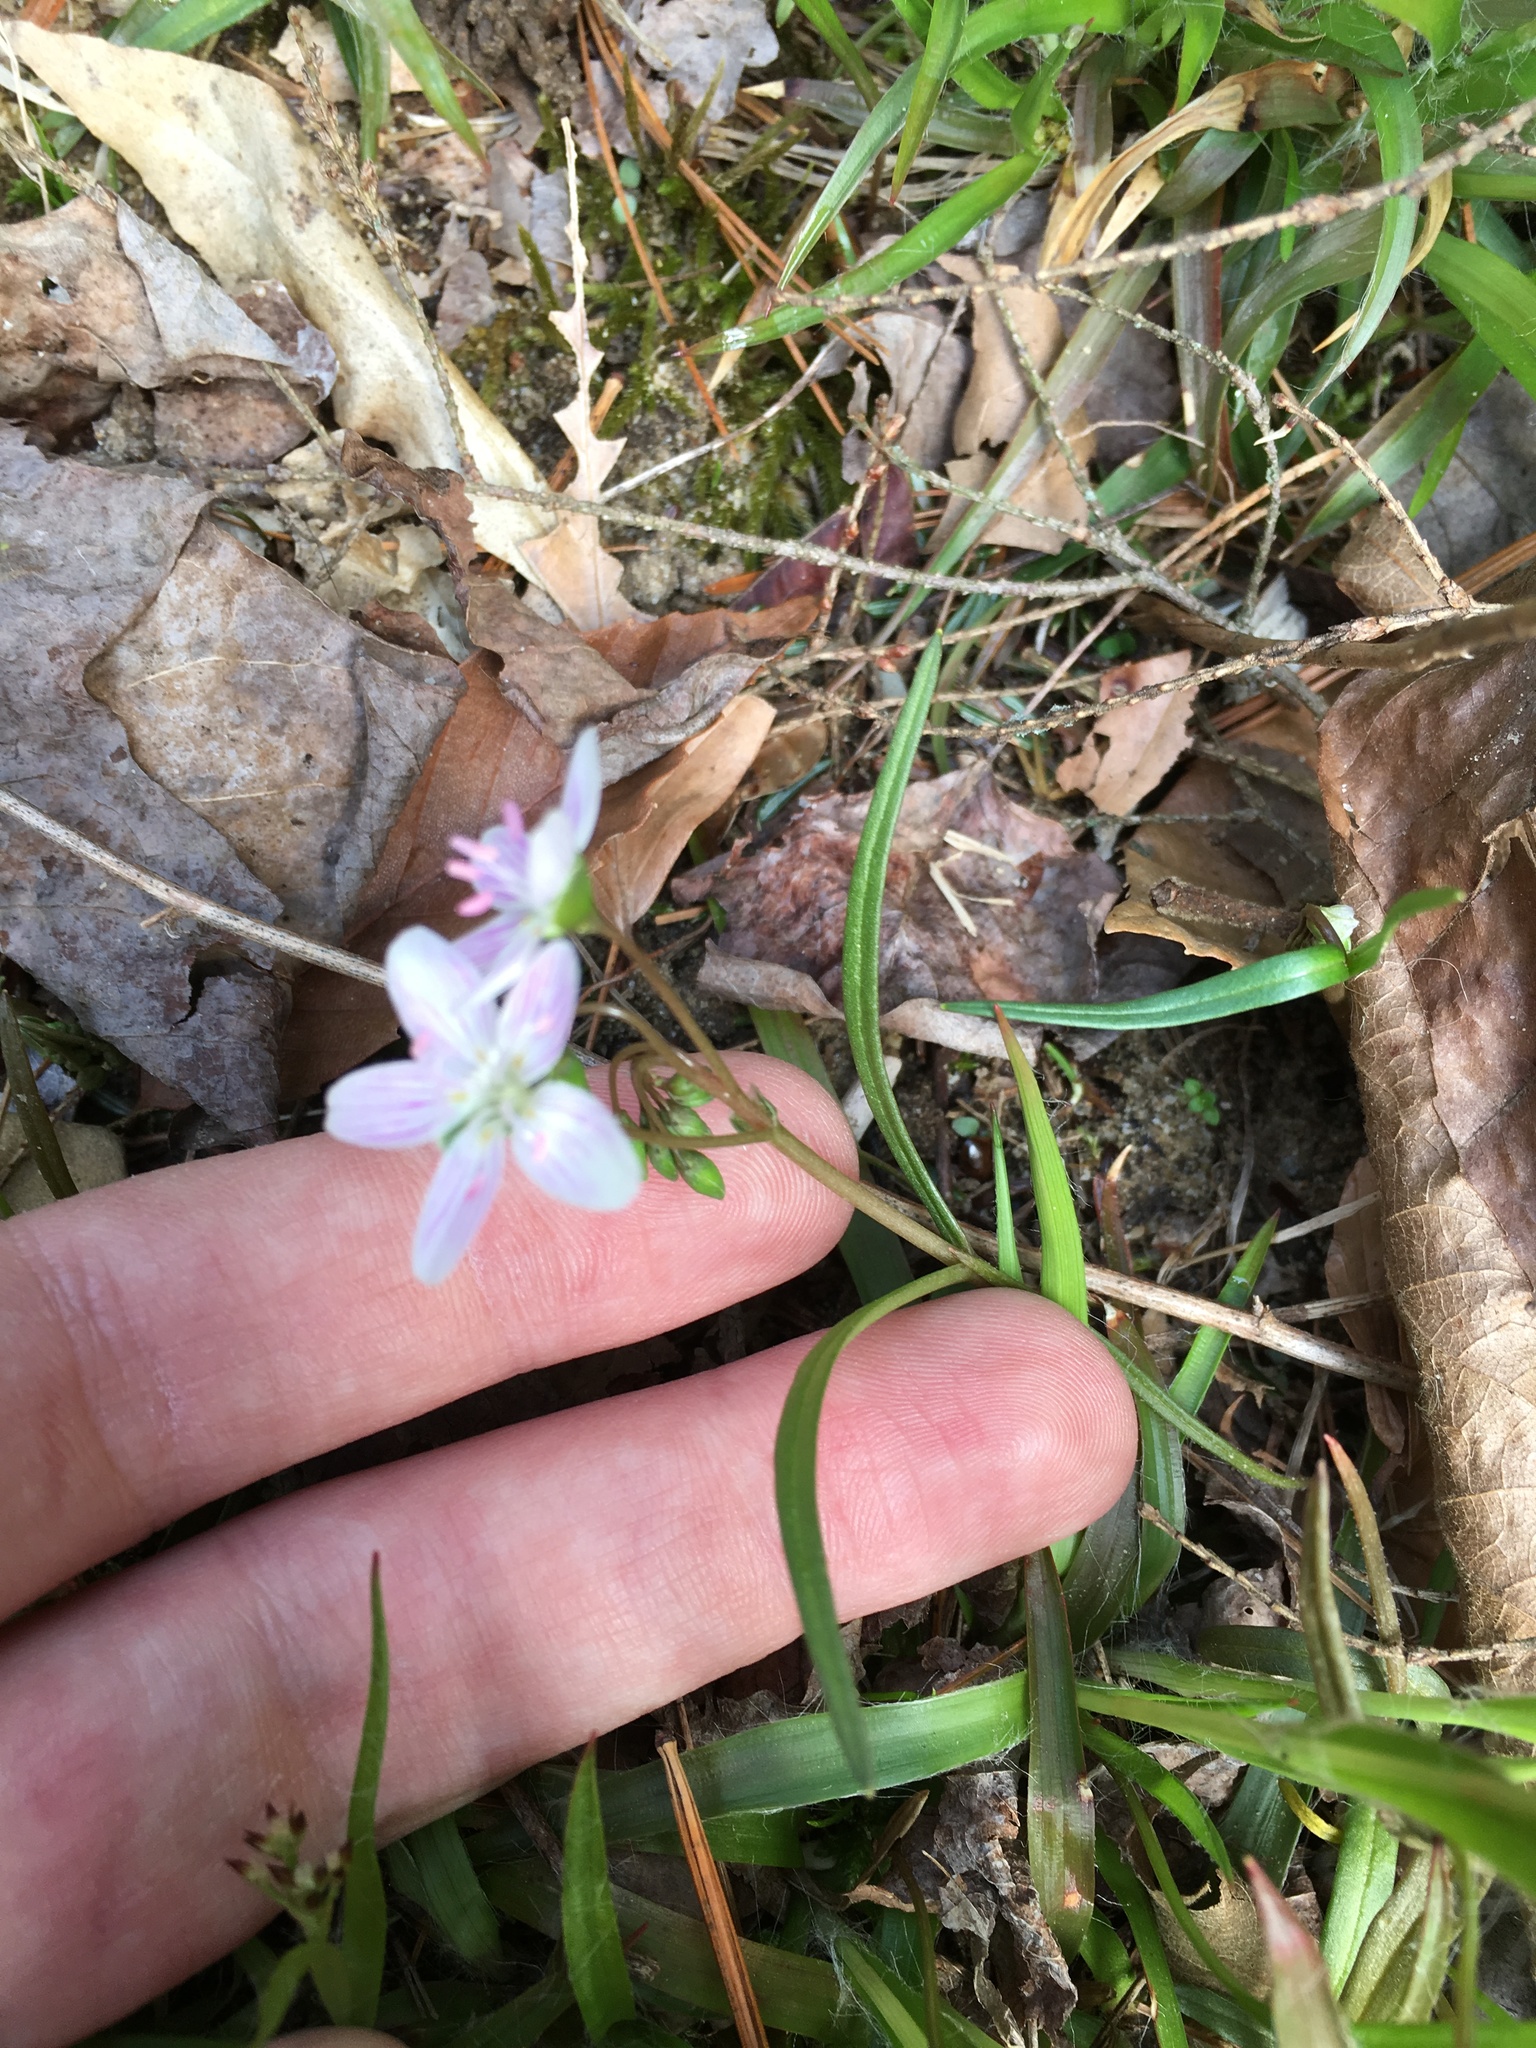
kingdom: Plantae
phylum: Tracheophyta
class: Magnoliopsida
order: Caryophyllales
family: Montiaceae
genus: Claytonia
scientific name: Claytonia virginica
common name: Virginia springbeauty
